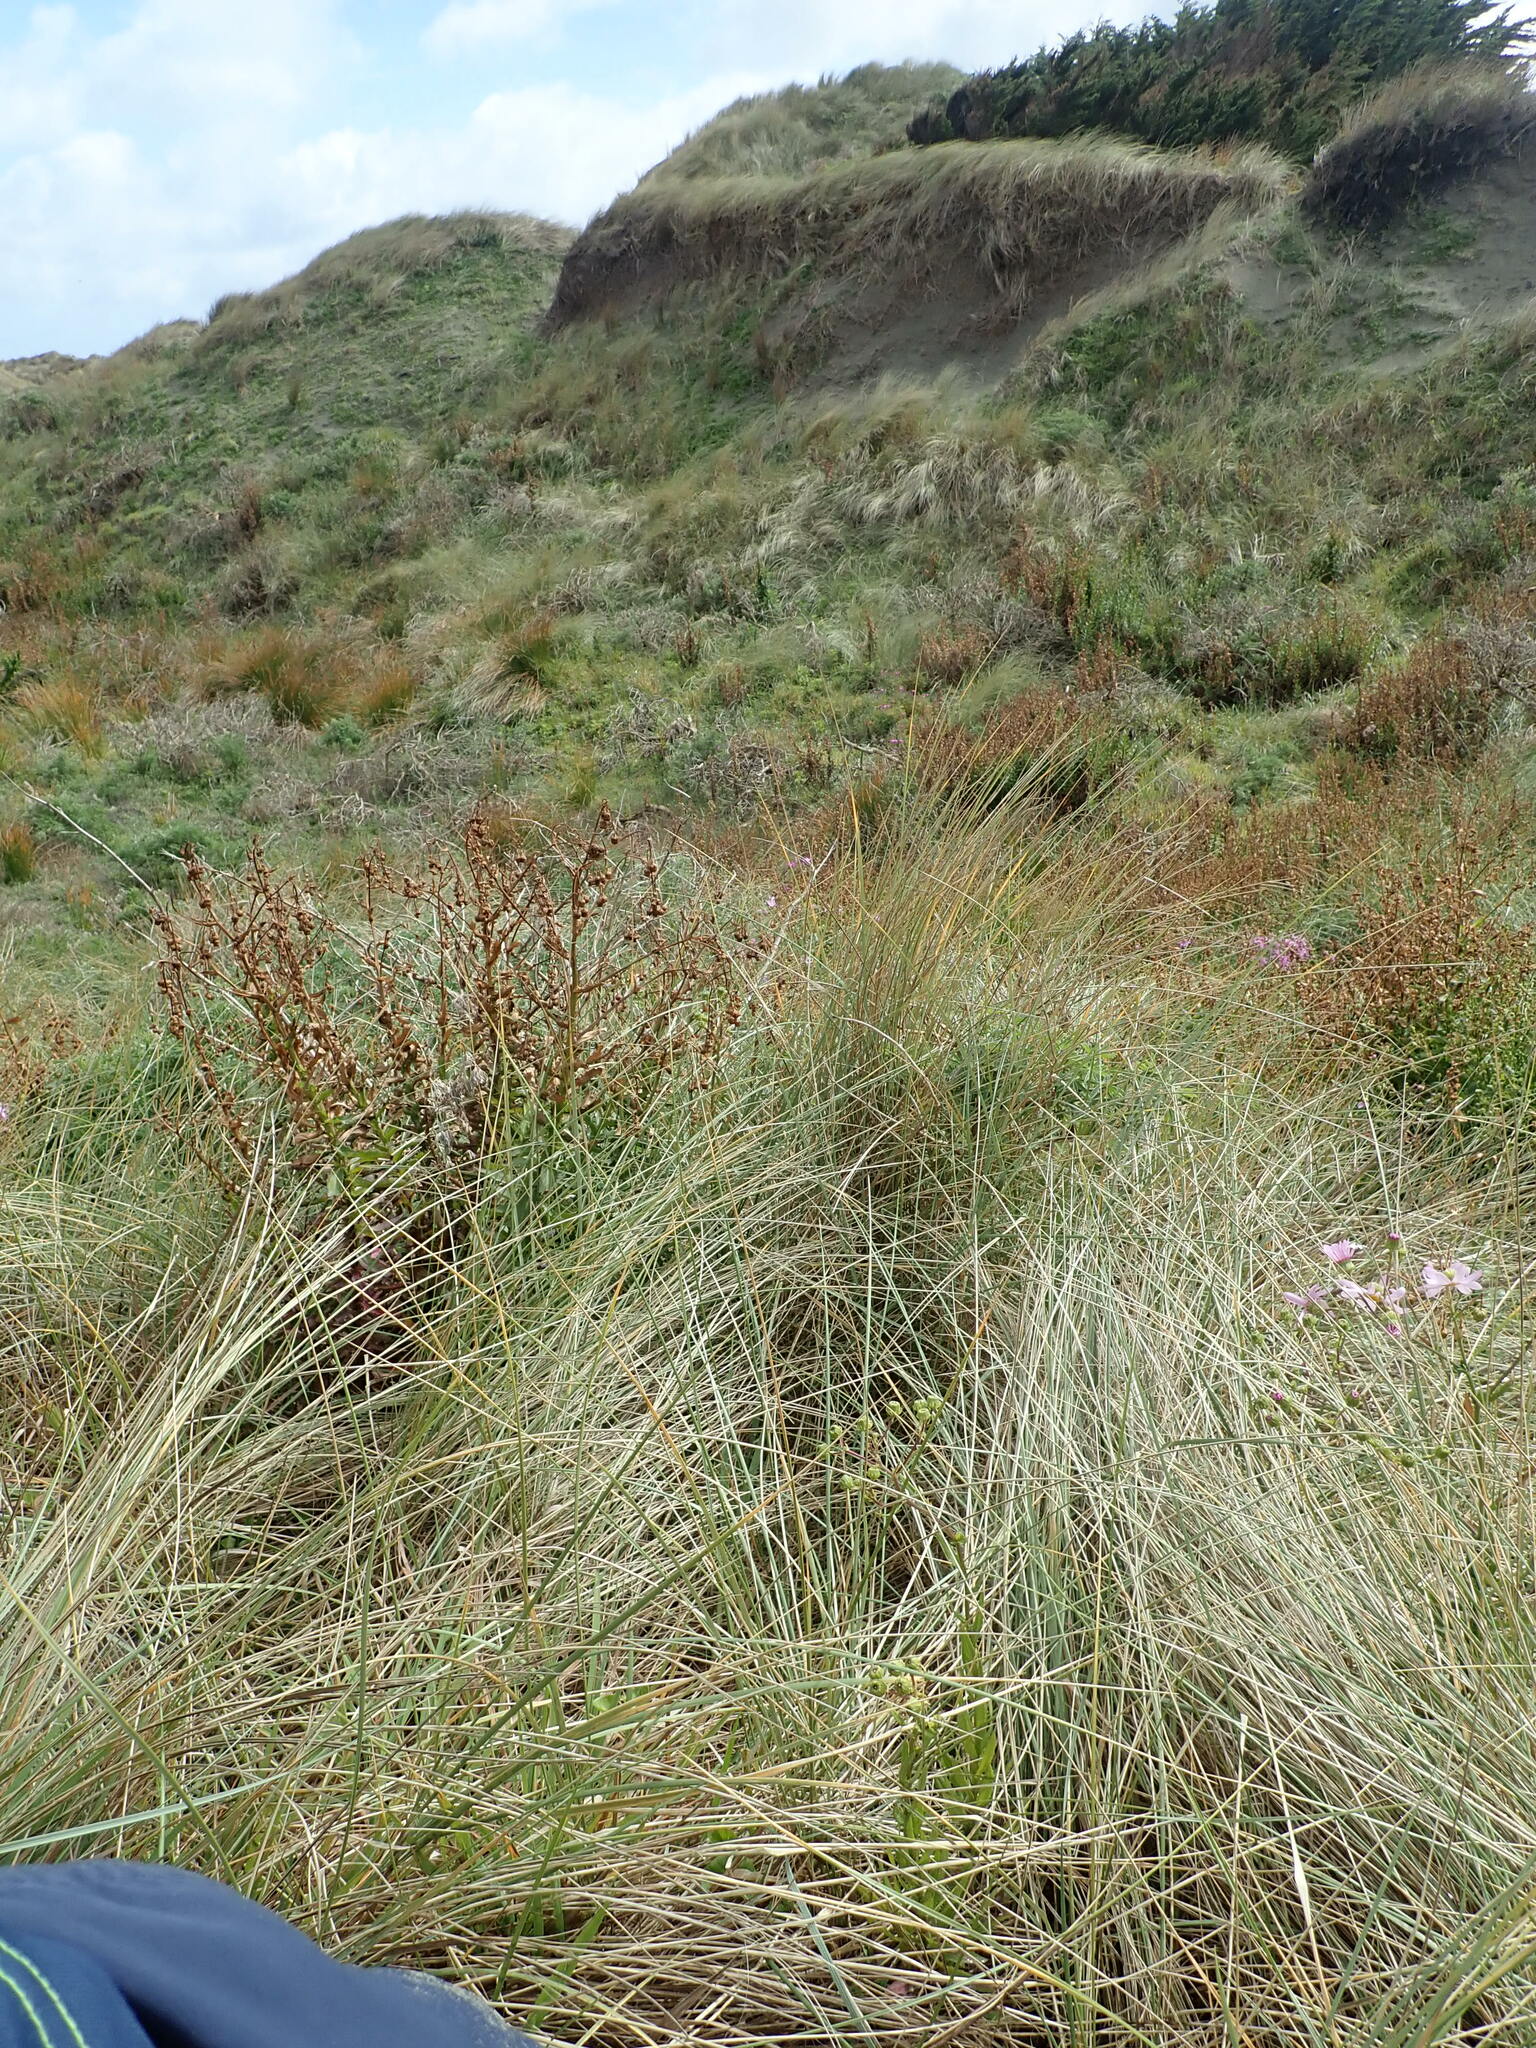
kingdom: Plantae
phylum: Tracheophyta
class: Magnoliopsida
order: Asterales
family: Asteraceae
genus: Senecio
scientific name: Senecio glastifolius
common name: Woad-leaved ragwort
